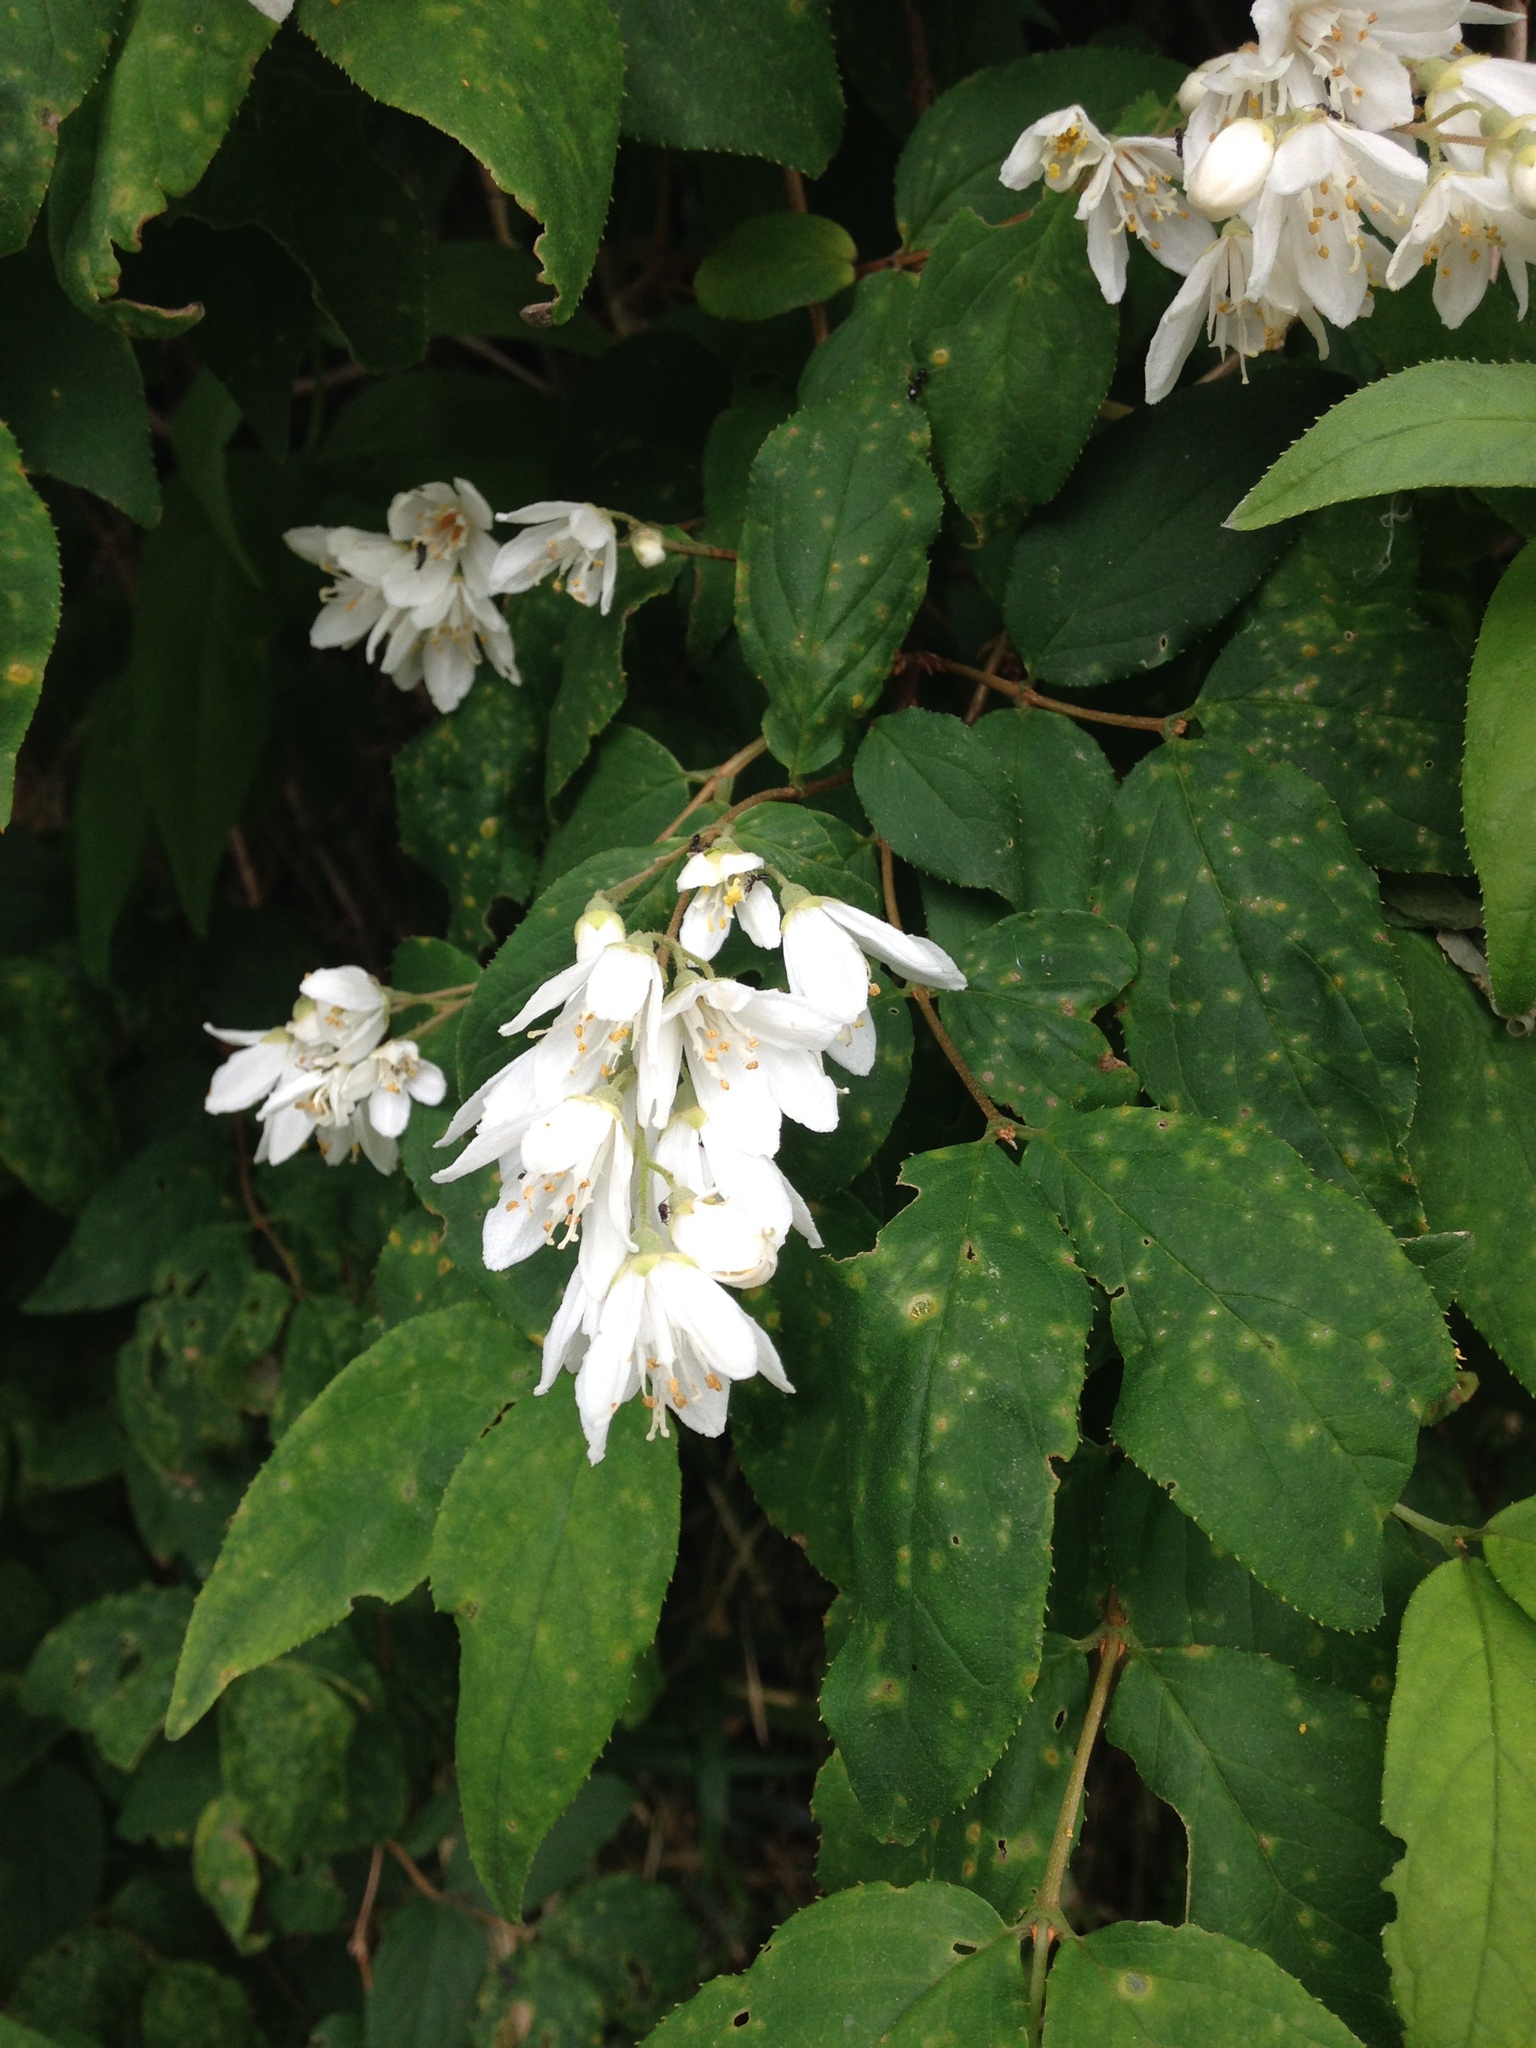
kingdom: Plantae
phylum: Tracheophyta
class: Magnoliopsida
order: Cornales
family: Hydrangeaceae
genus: Deutzia
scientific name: Deutzia crenata
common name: Deutzia
